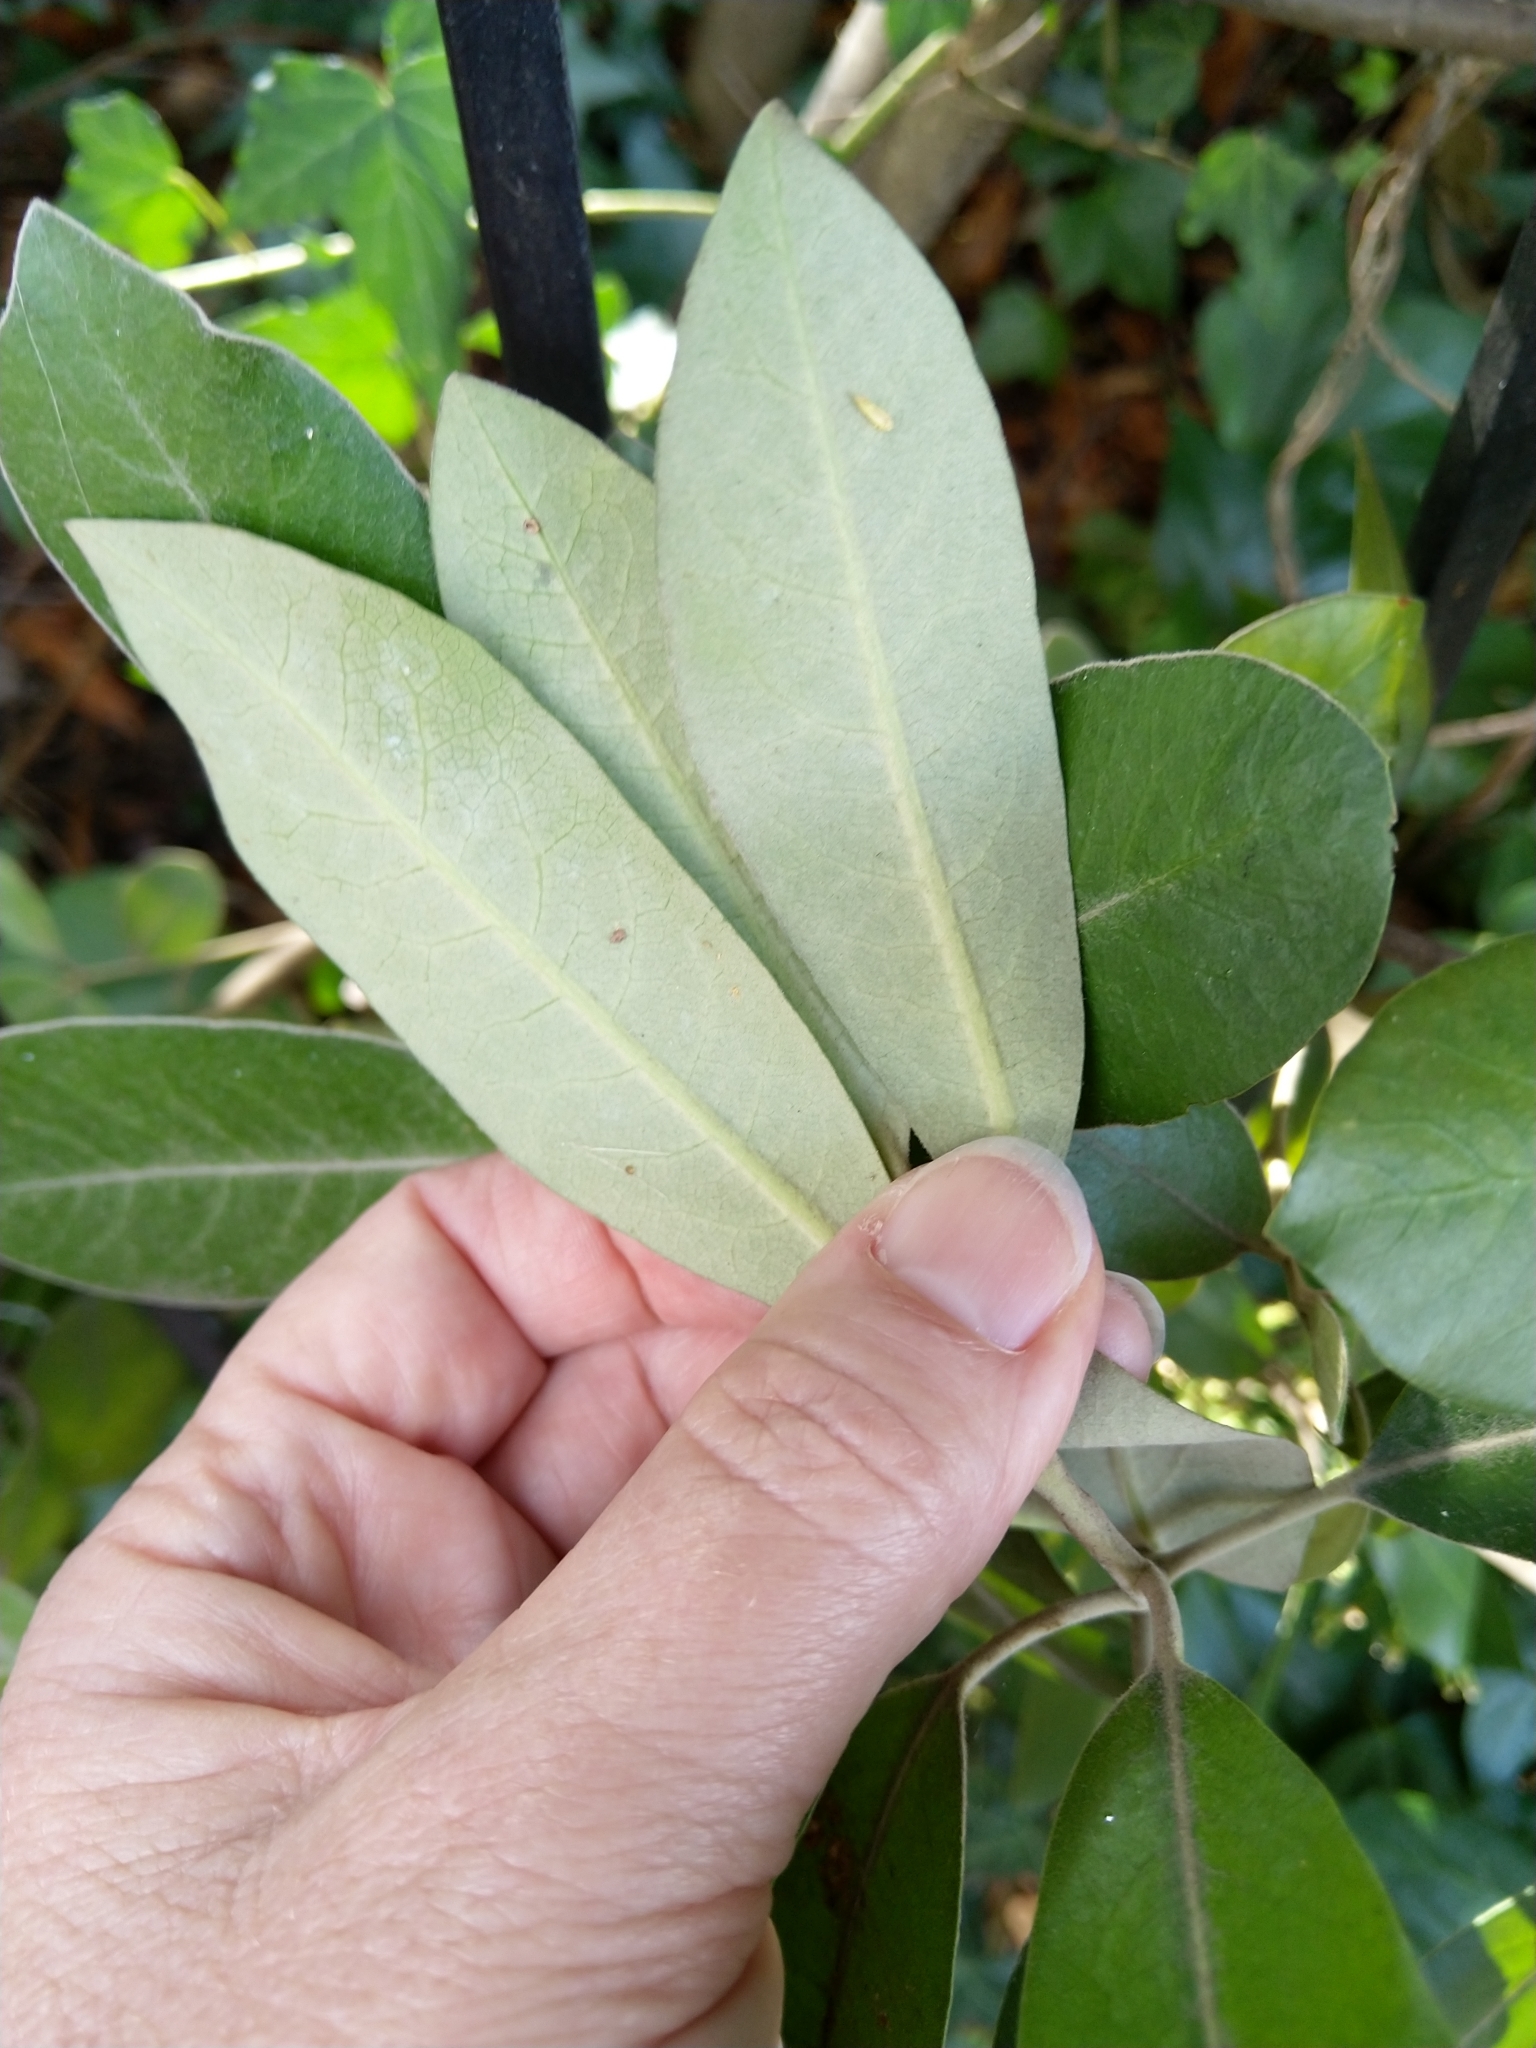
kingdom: Plantae
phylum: Tracheophyta
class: Magnoliopsida
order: Apiales
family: Pittosporaceae
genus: Pittosporum
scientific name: Pittosporum ralphii
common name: Ralph's desertwillow
